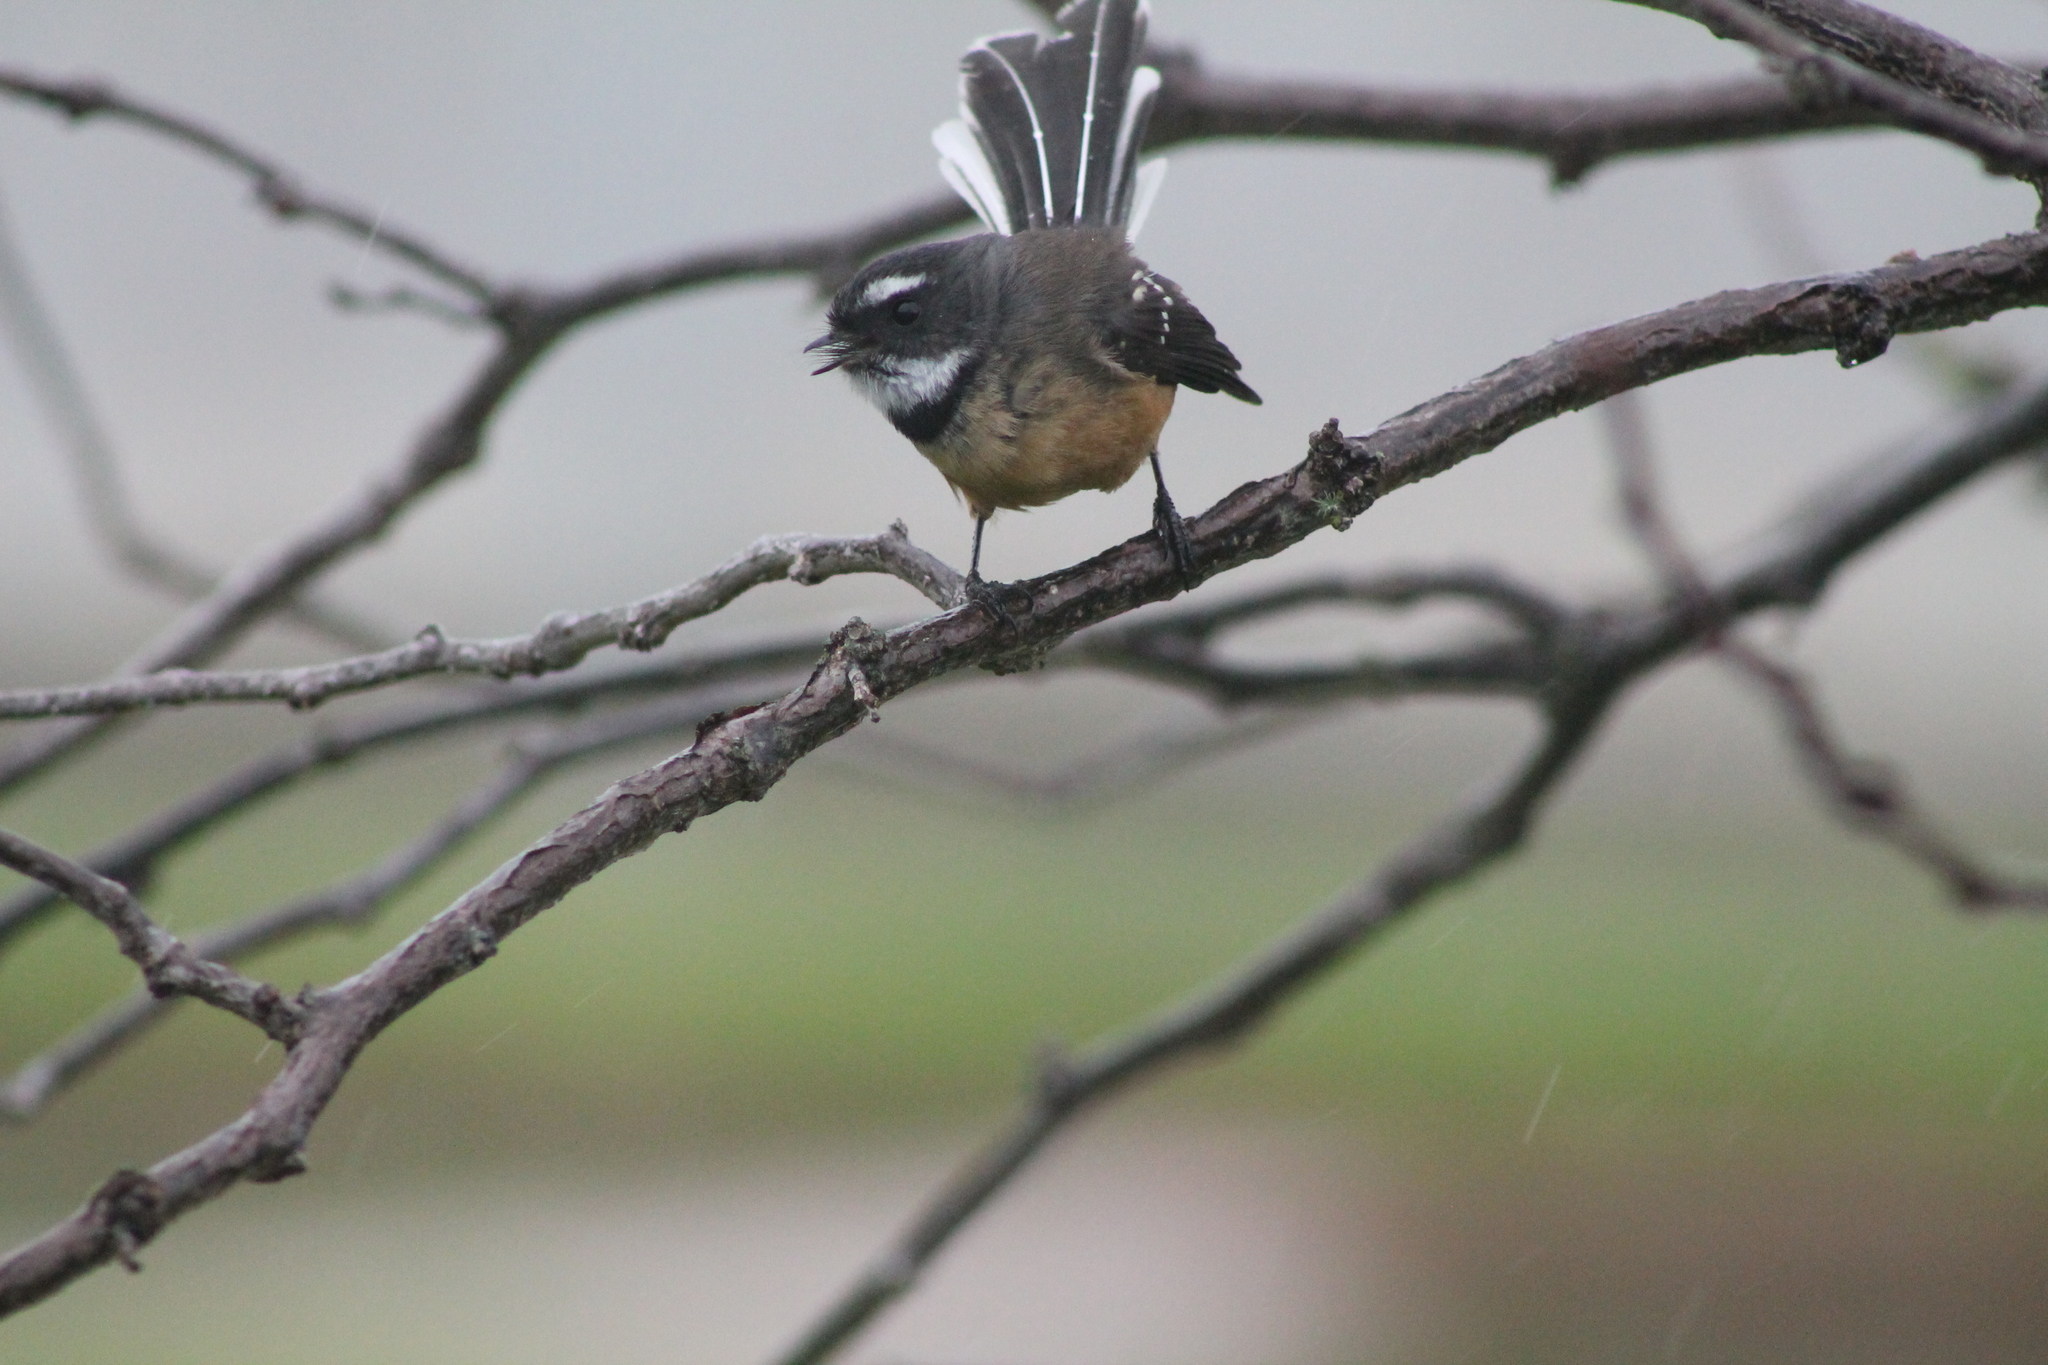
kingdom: Animalia
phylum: Chordata
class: Aves
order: Passeriformes
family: Rhipiduridae
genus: Rhipidura
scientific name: Rhipidura fuliginosa
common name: New zealand fantail
